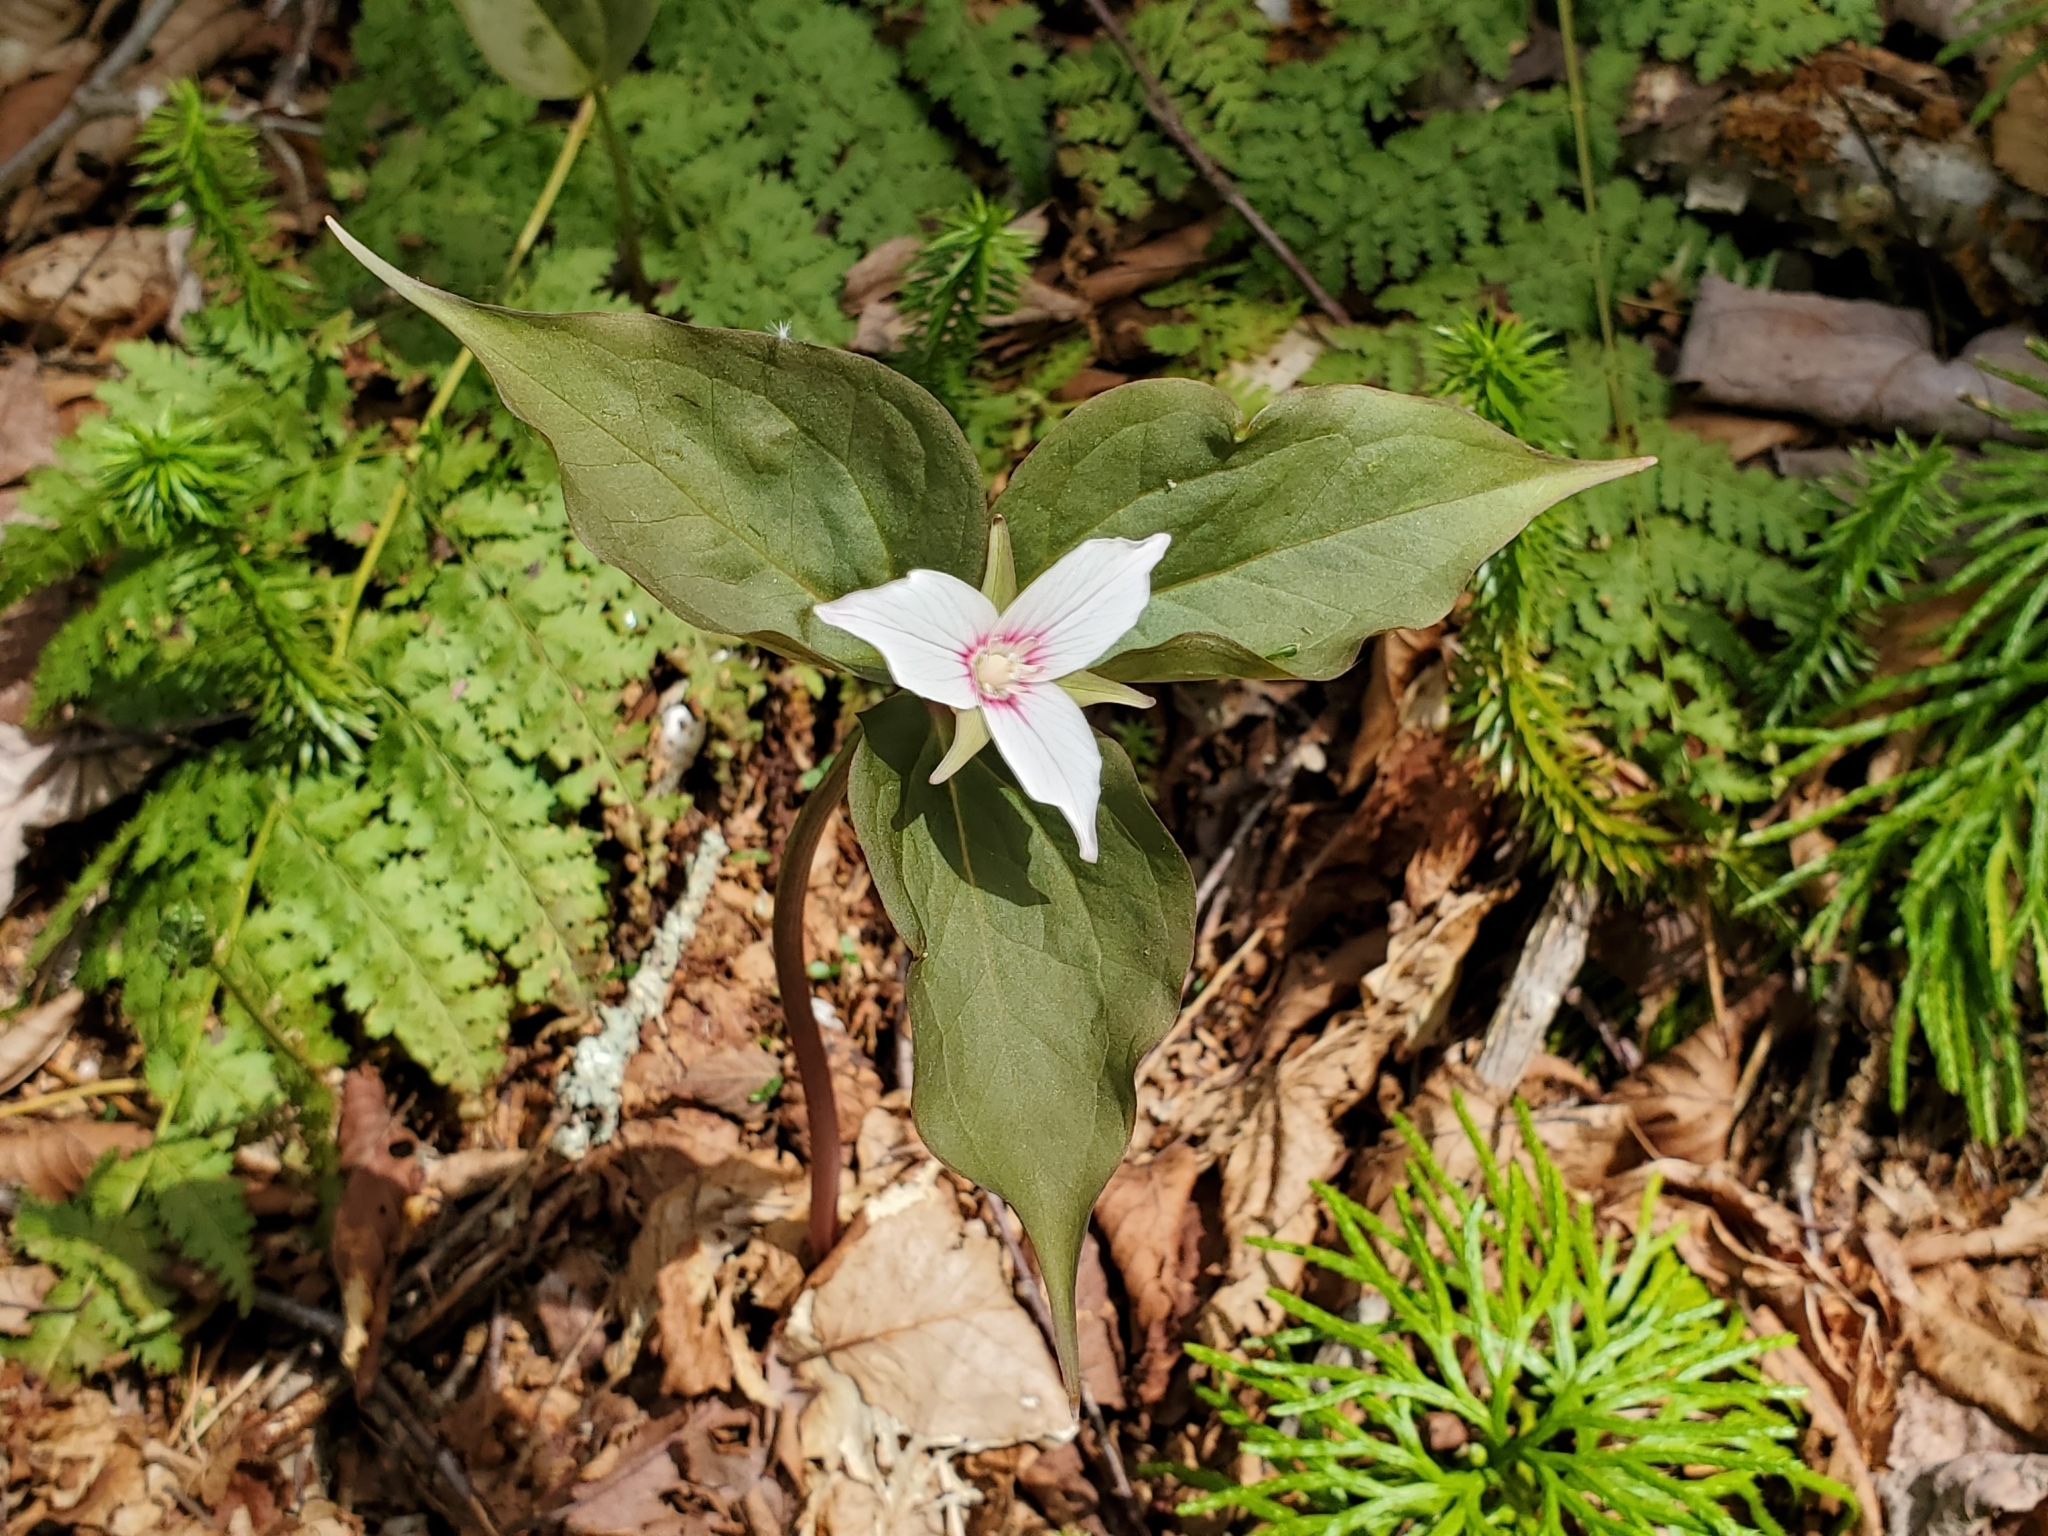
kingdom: Plantae
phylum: Tracheophyta
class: Liliopsida
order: Liliales
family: Melanthiaceae
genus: Trillium
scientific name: Trillium undulatum
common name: Paint trillium
